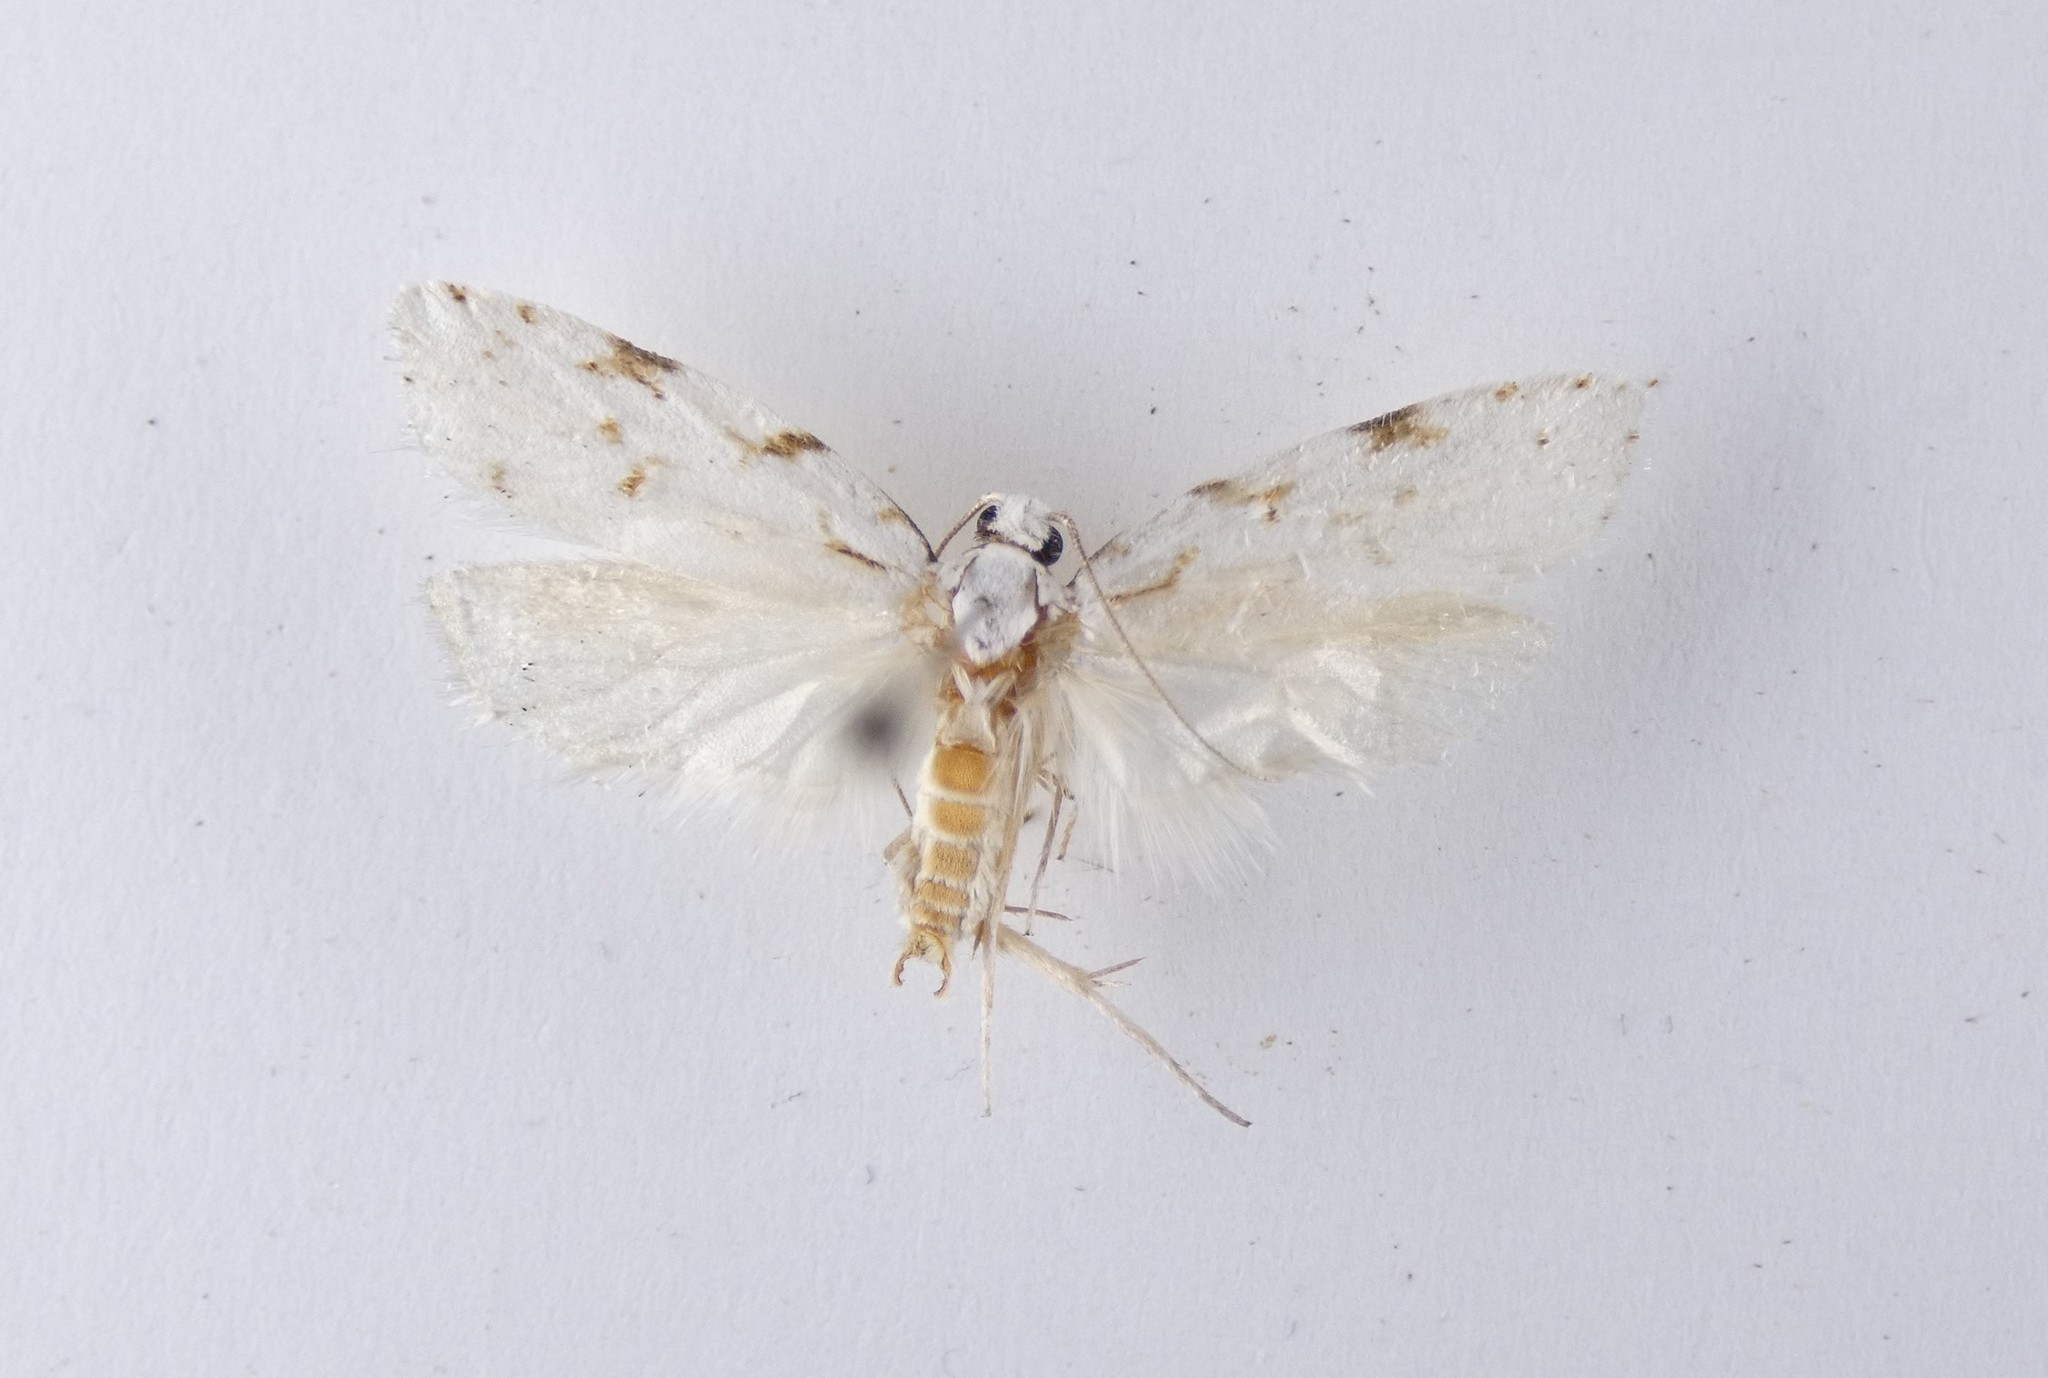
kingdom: Animalia
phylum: Arthropoda
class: Insecta
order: Lepidoptera
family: Oecophoridae
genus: Izatha
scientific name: Izatha hudsoni
